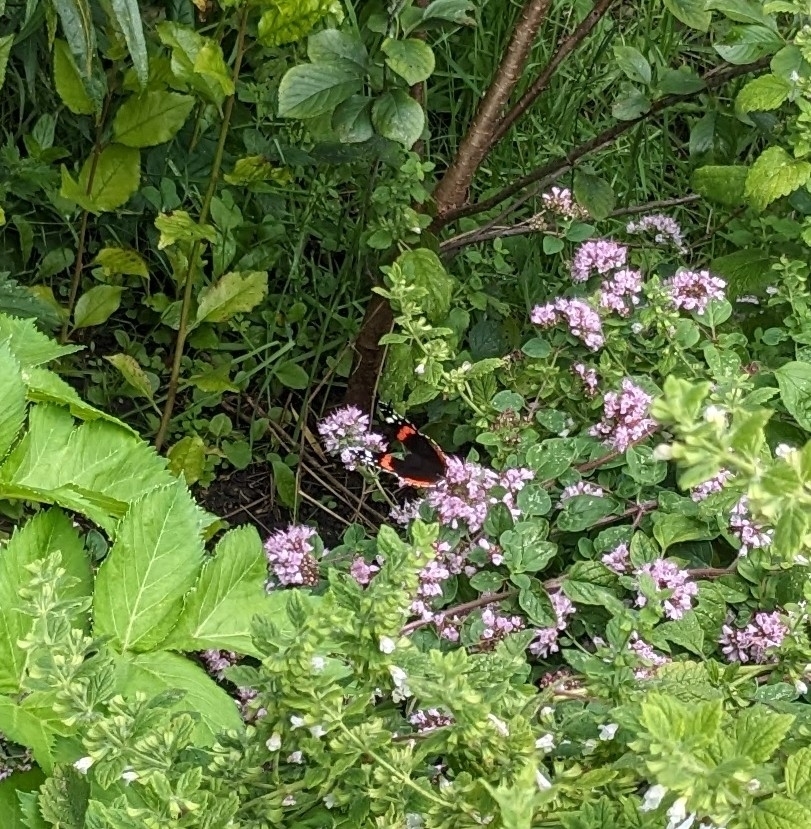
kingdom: Animalia
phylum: Arthropoda
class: Insecta
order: Lepidoptera
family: Nymphalidae
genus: Vanessa
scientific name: Vanessa atalanta
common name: Red admiral
